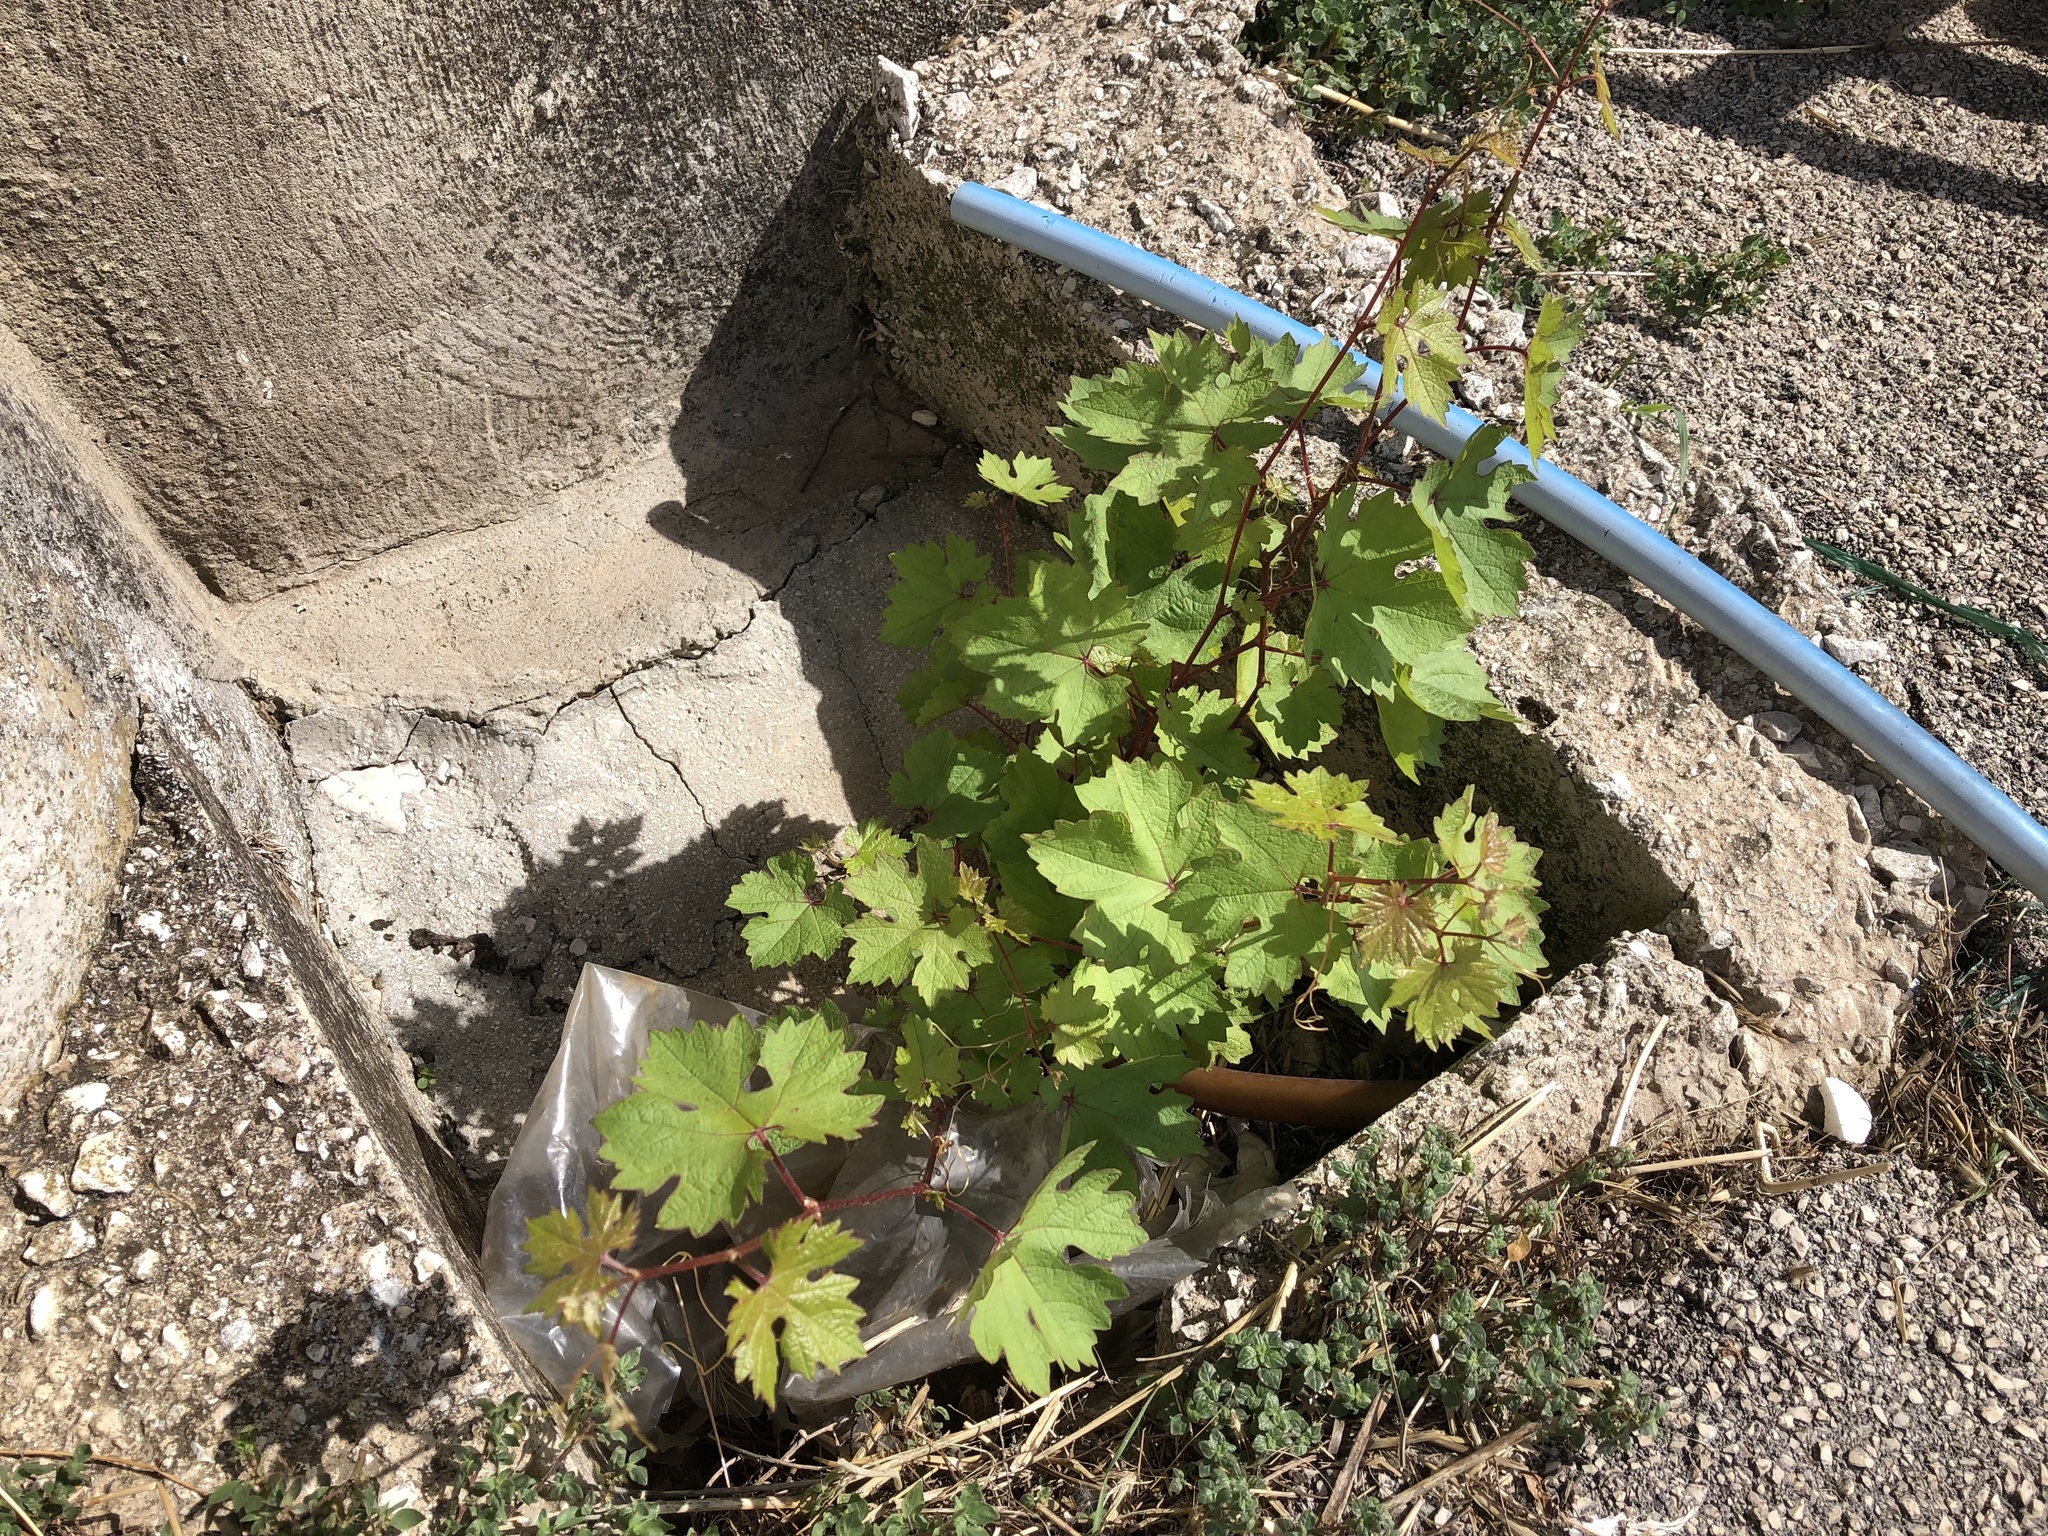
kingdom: Plantae
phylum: Tracheophyta
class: Magnoliopsida
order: Vitales
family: Vitaceae
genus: Vitis
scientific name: Vitis vinifera
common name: Grape-vine
